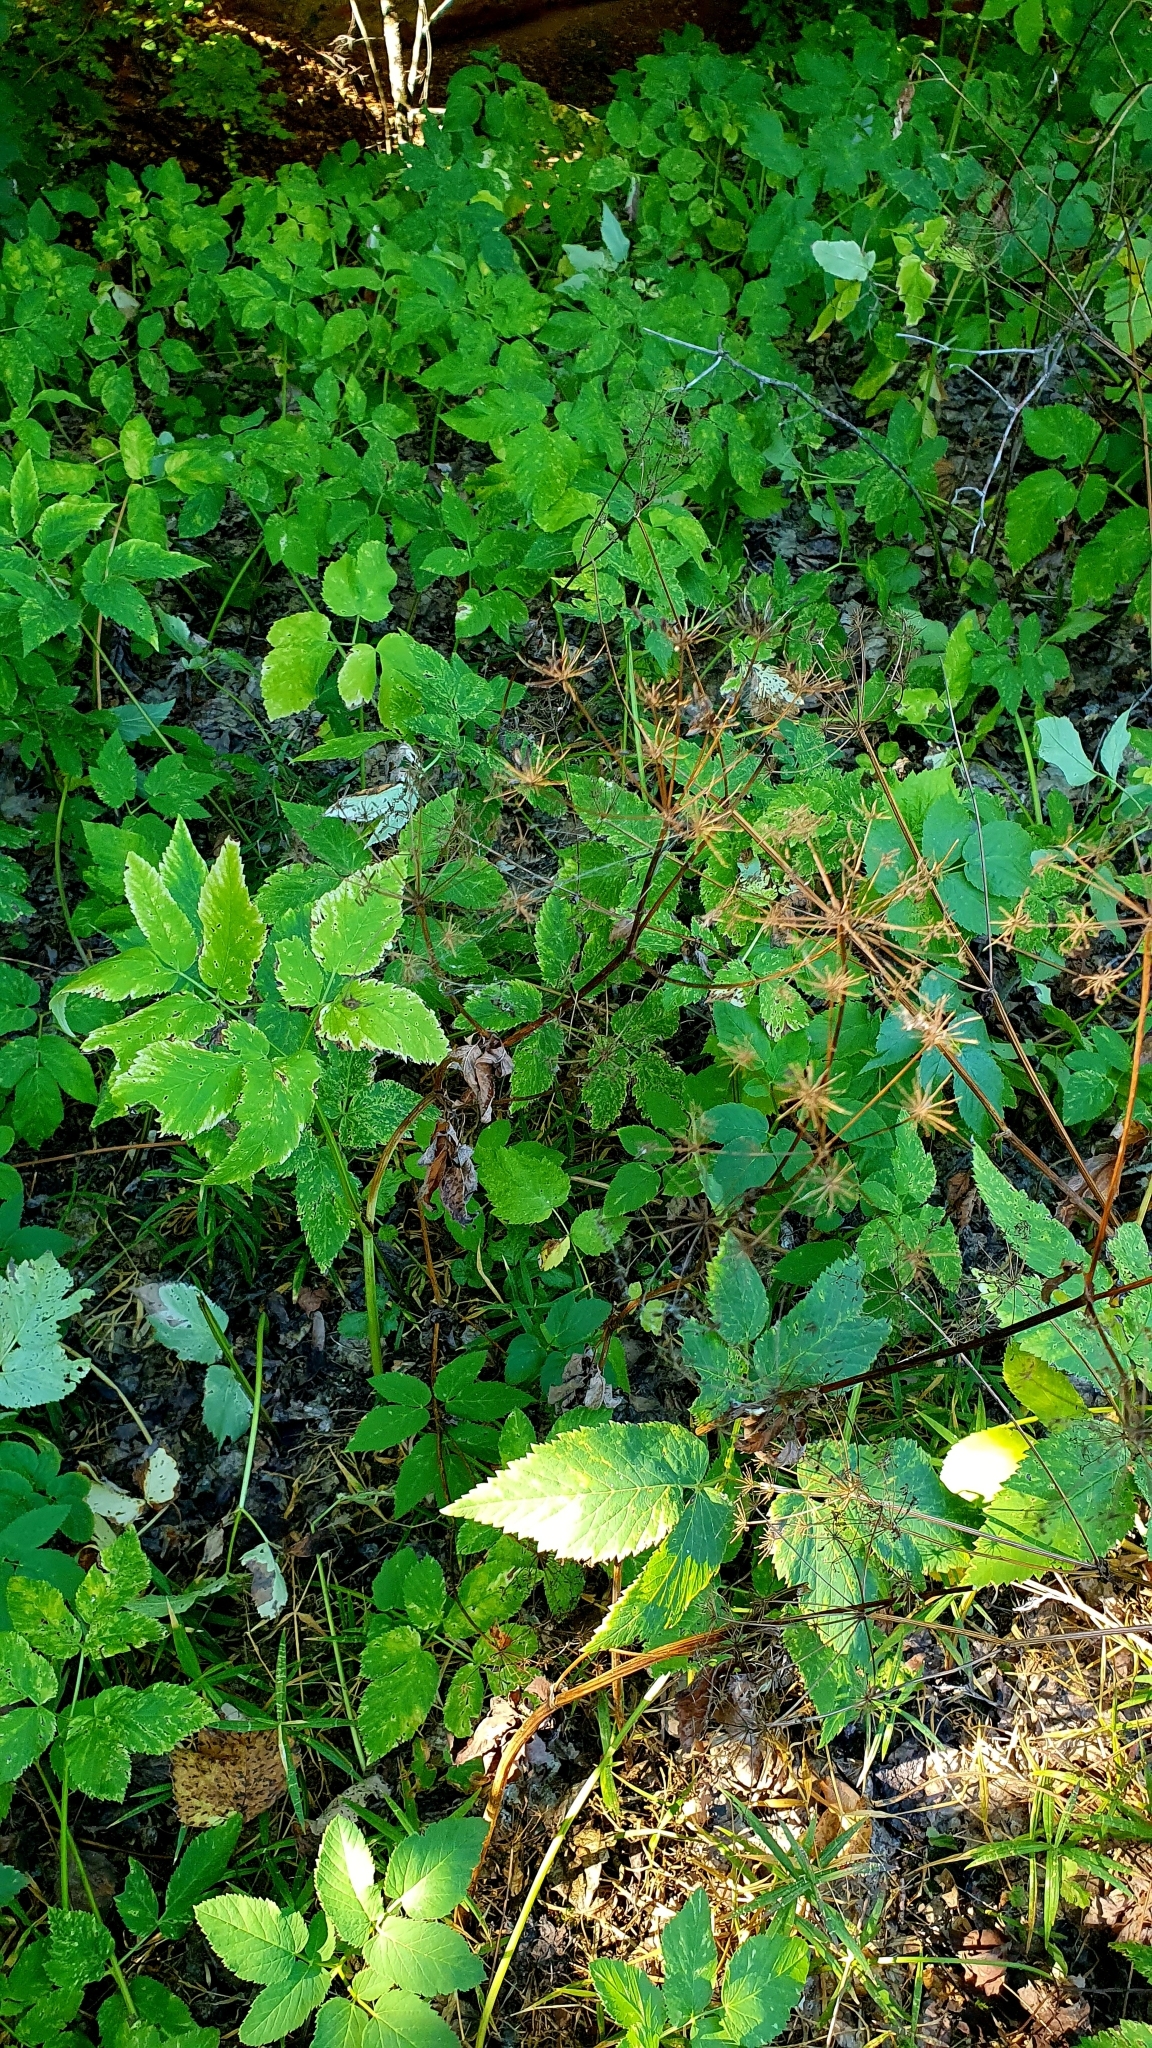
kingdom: Plantae
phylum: Tracheophyta
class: Magnoliopsida
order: Apiales
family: Apiaceae
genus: Aegopodium
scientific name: Aegopodium podagraria
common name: Ground-elder
